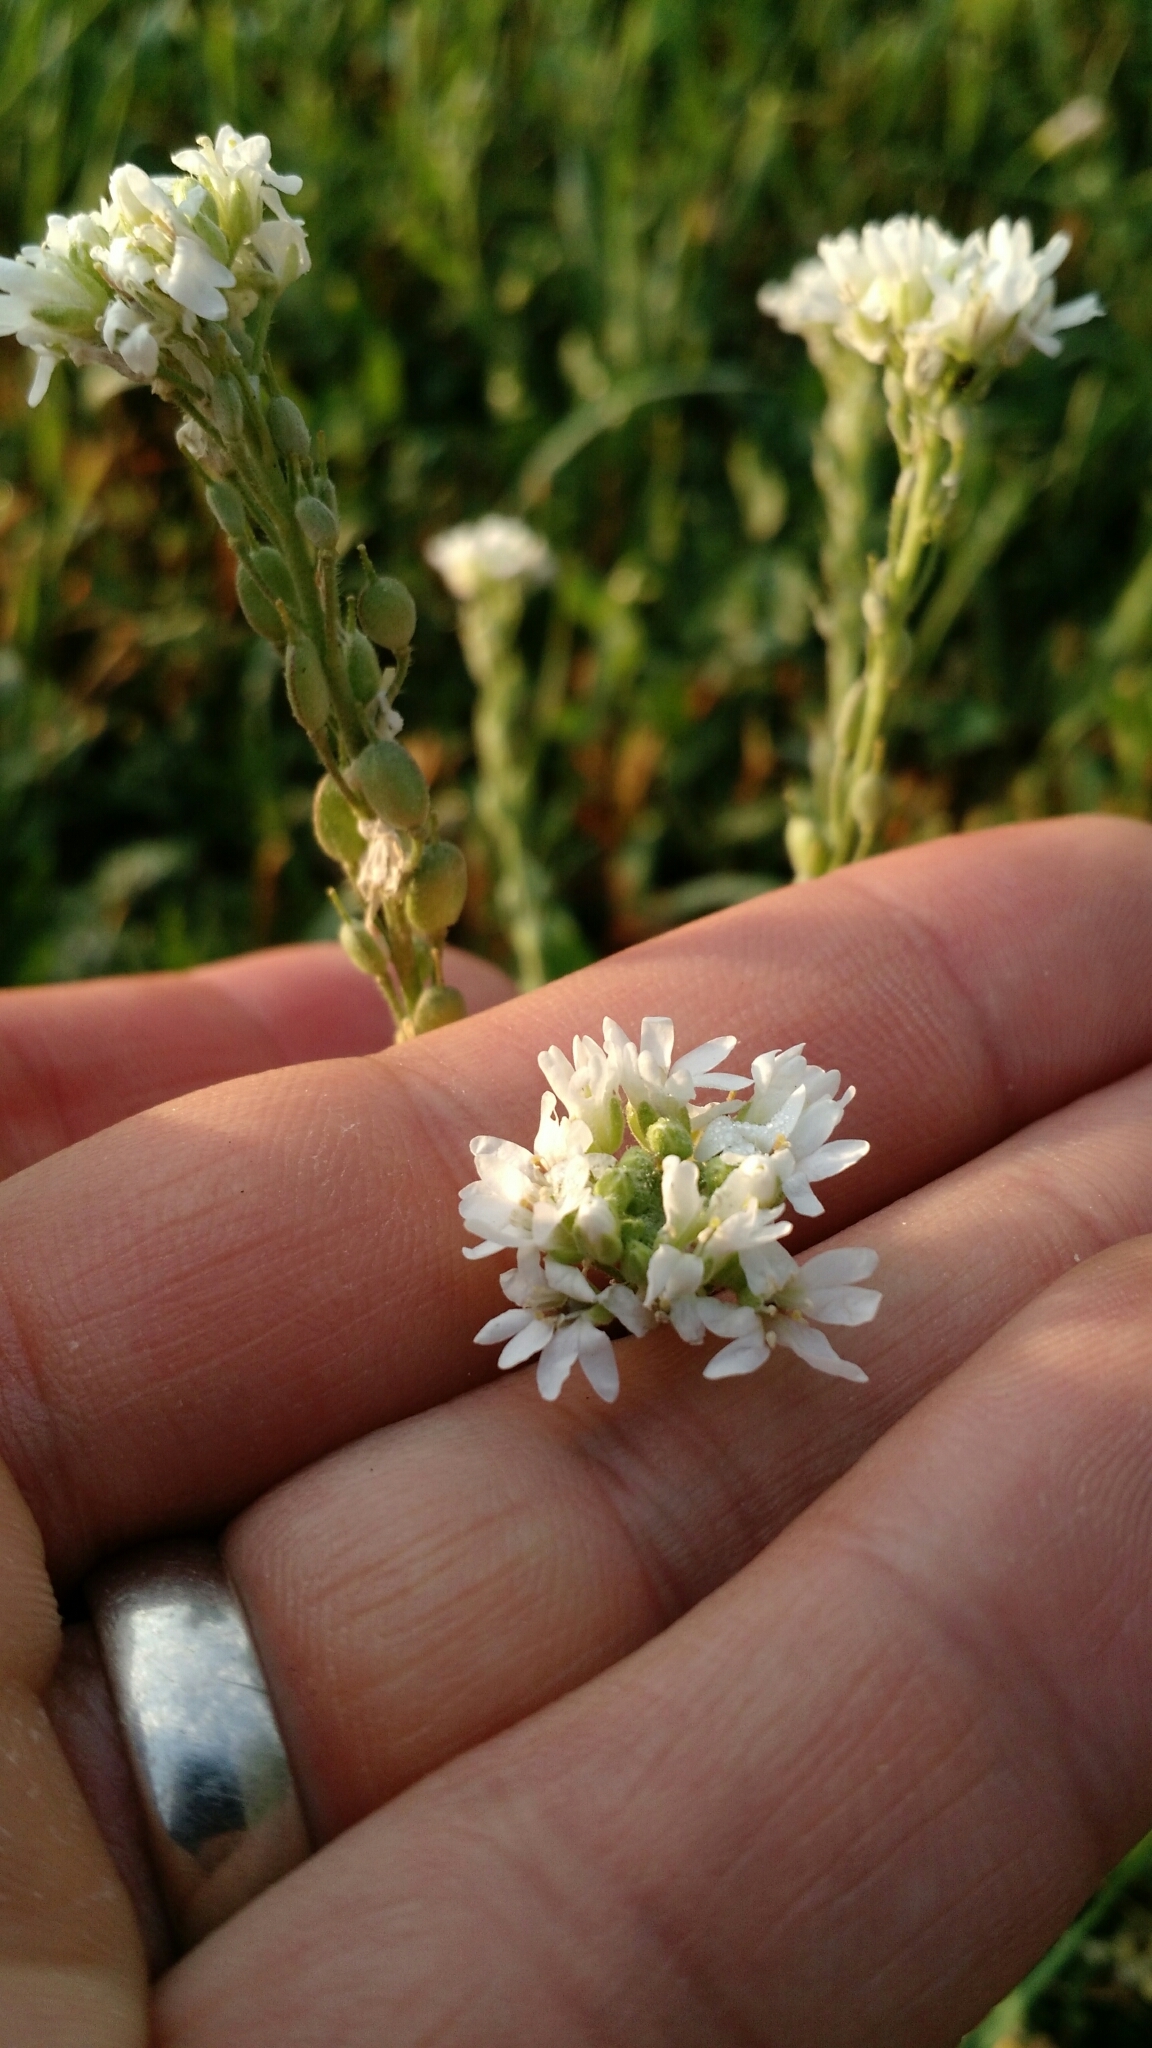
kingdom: Plantae
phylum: Tracheophyta
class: Magnoliopsida
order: Brassicales
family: Brassicaceae
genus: Berteroa
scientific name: Berteroa incana
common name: Hoary alison
